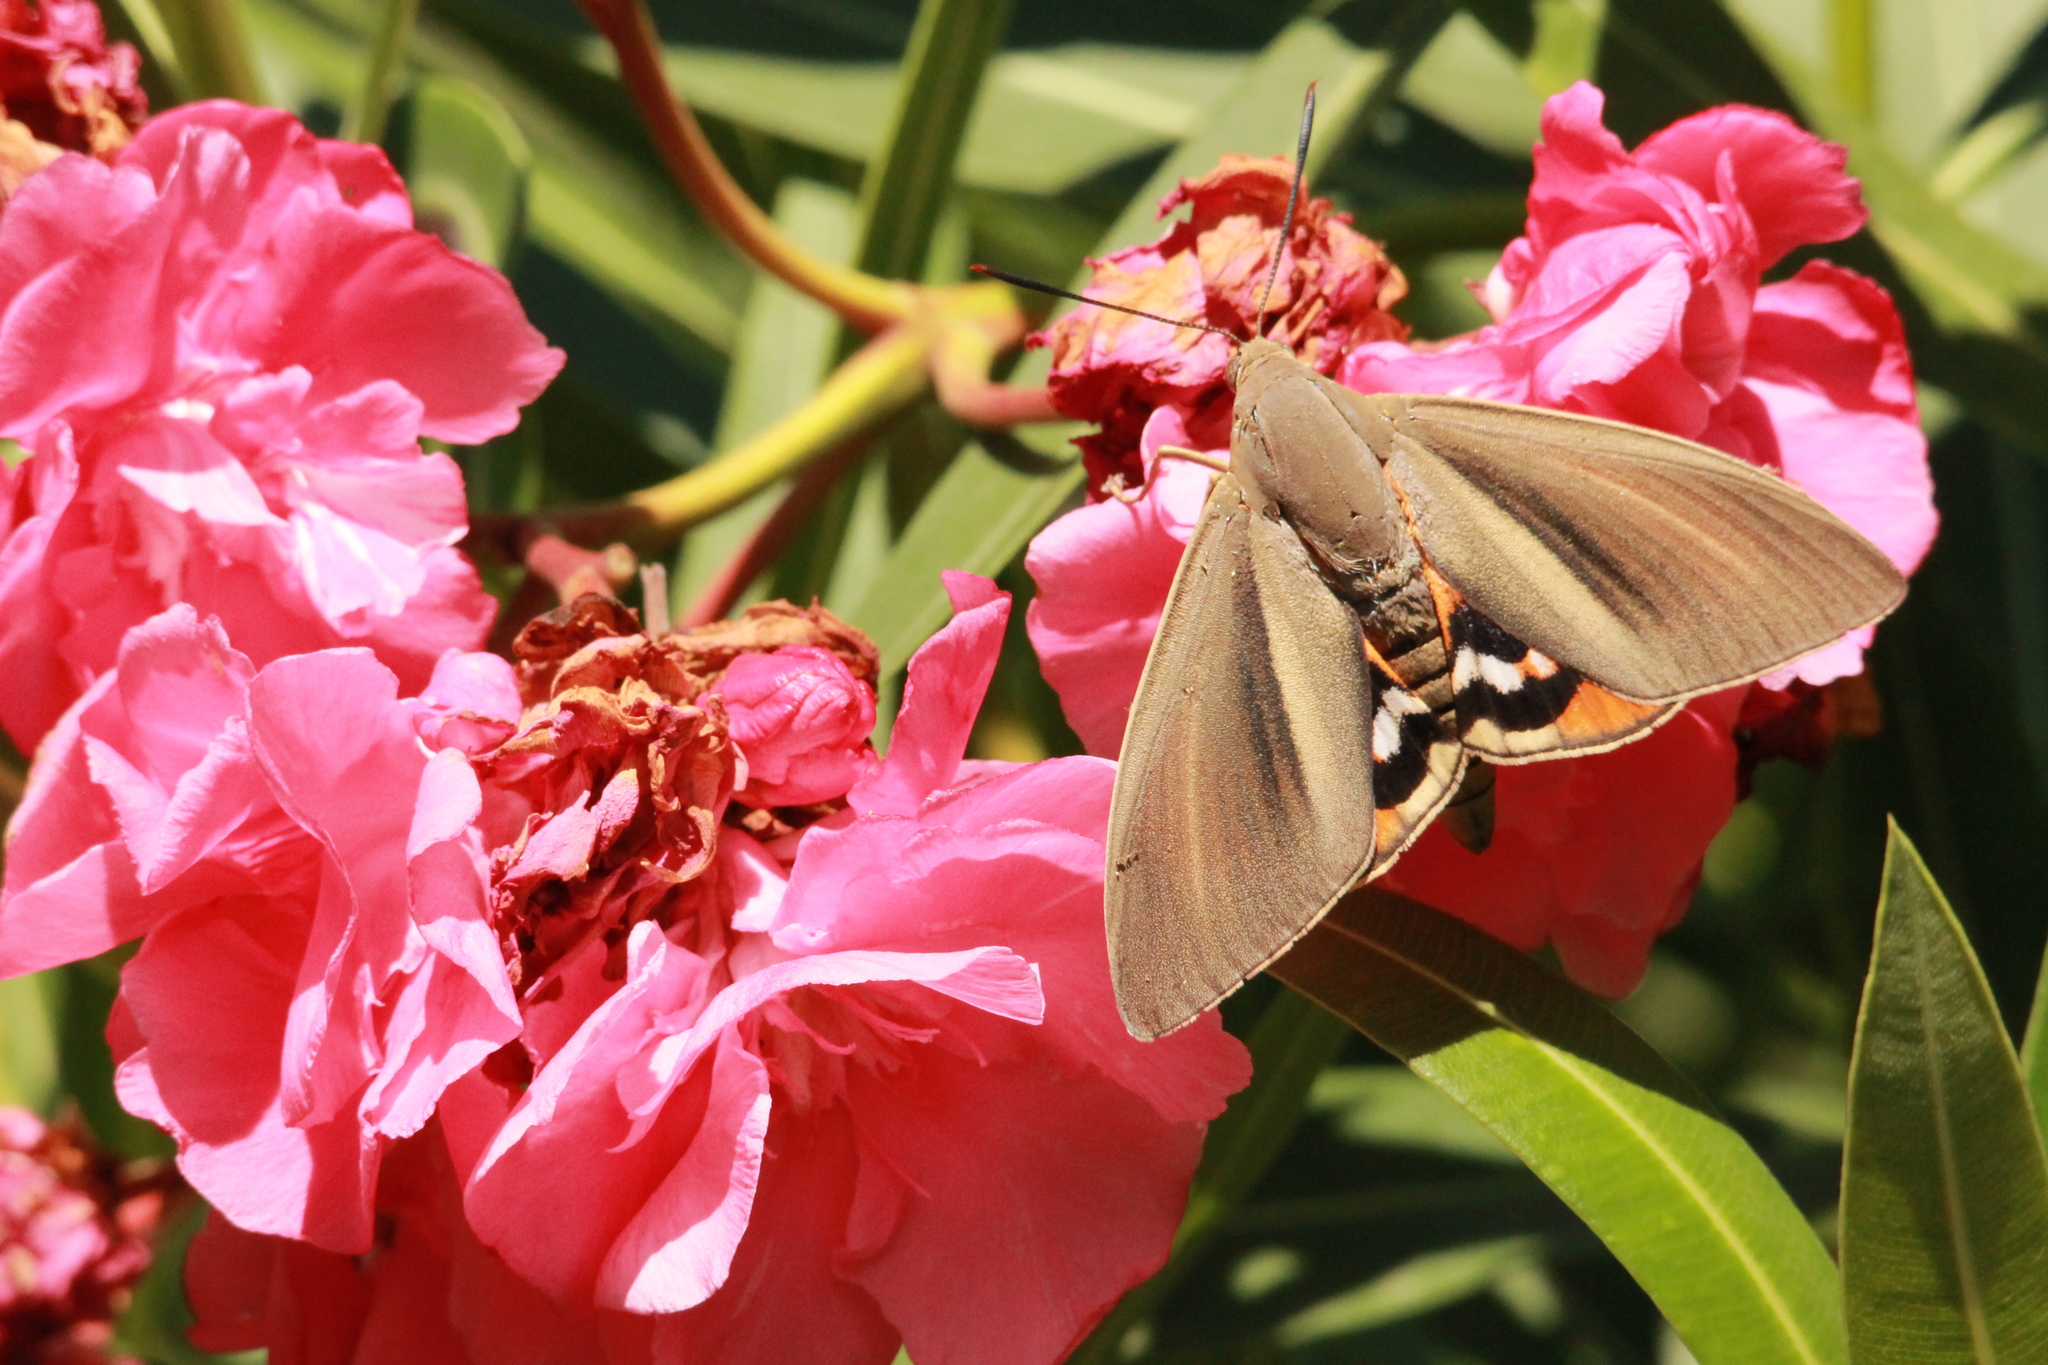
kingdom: Animalia
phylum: Arthropoda
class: Insecta
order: Lepidoptera
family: Castniidae
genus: Paysandisia
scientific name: Paysandisia archon
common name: Palm moth
